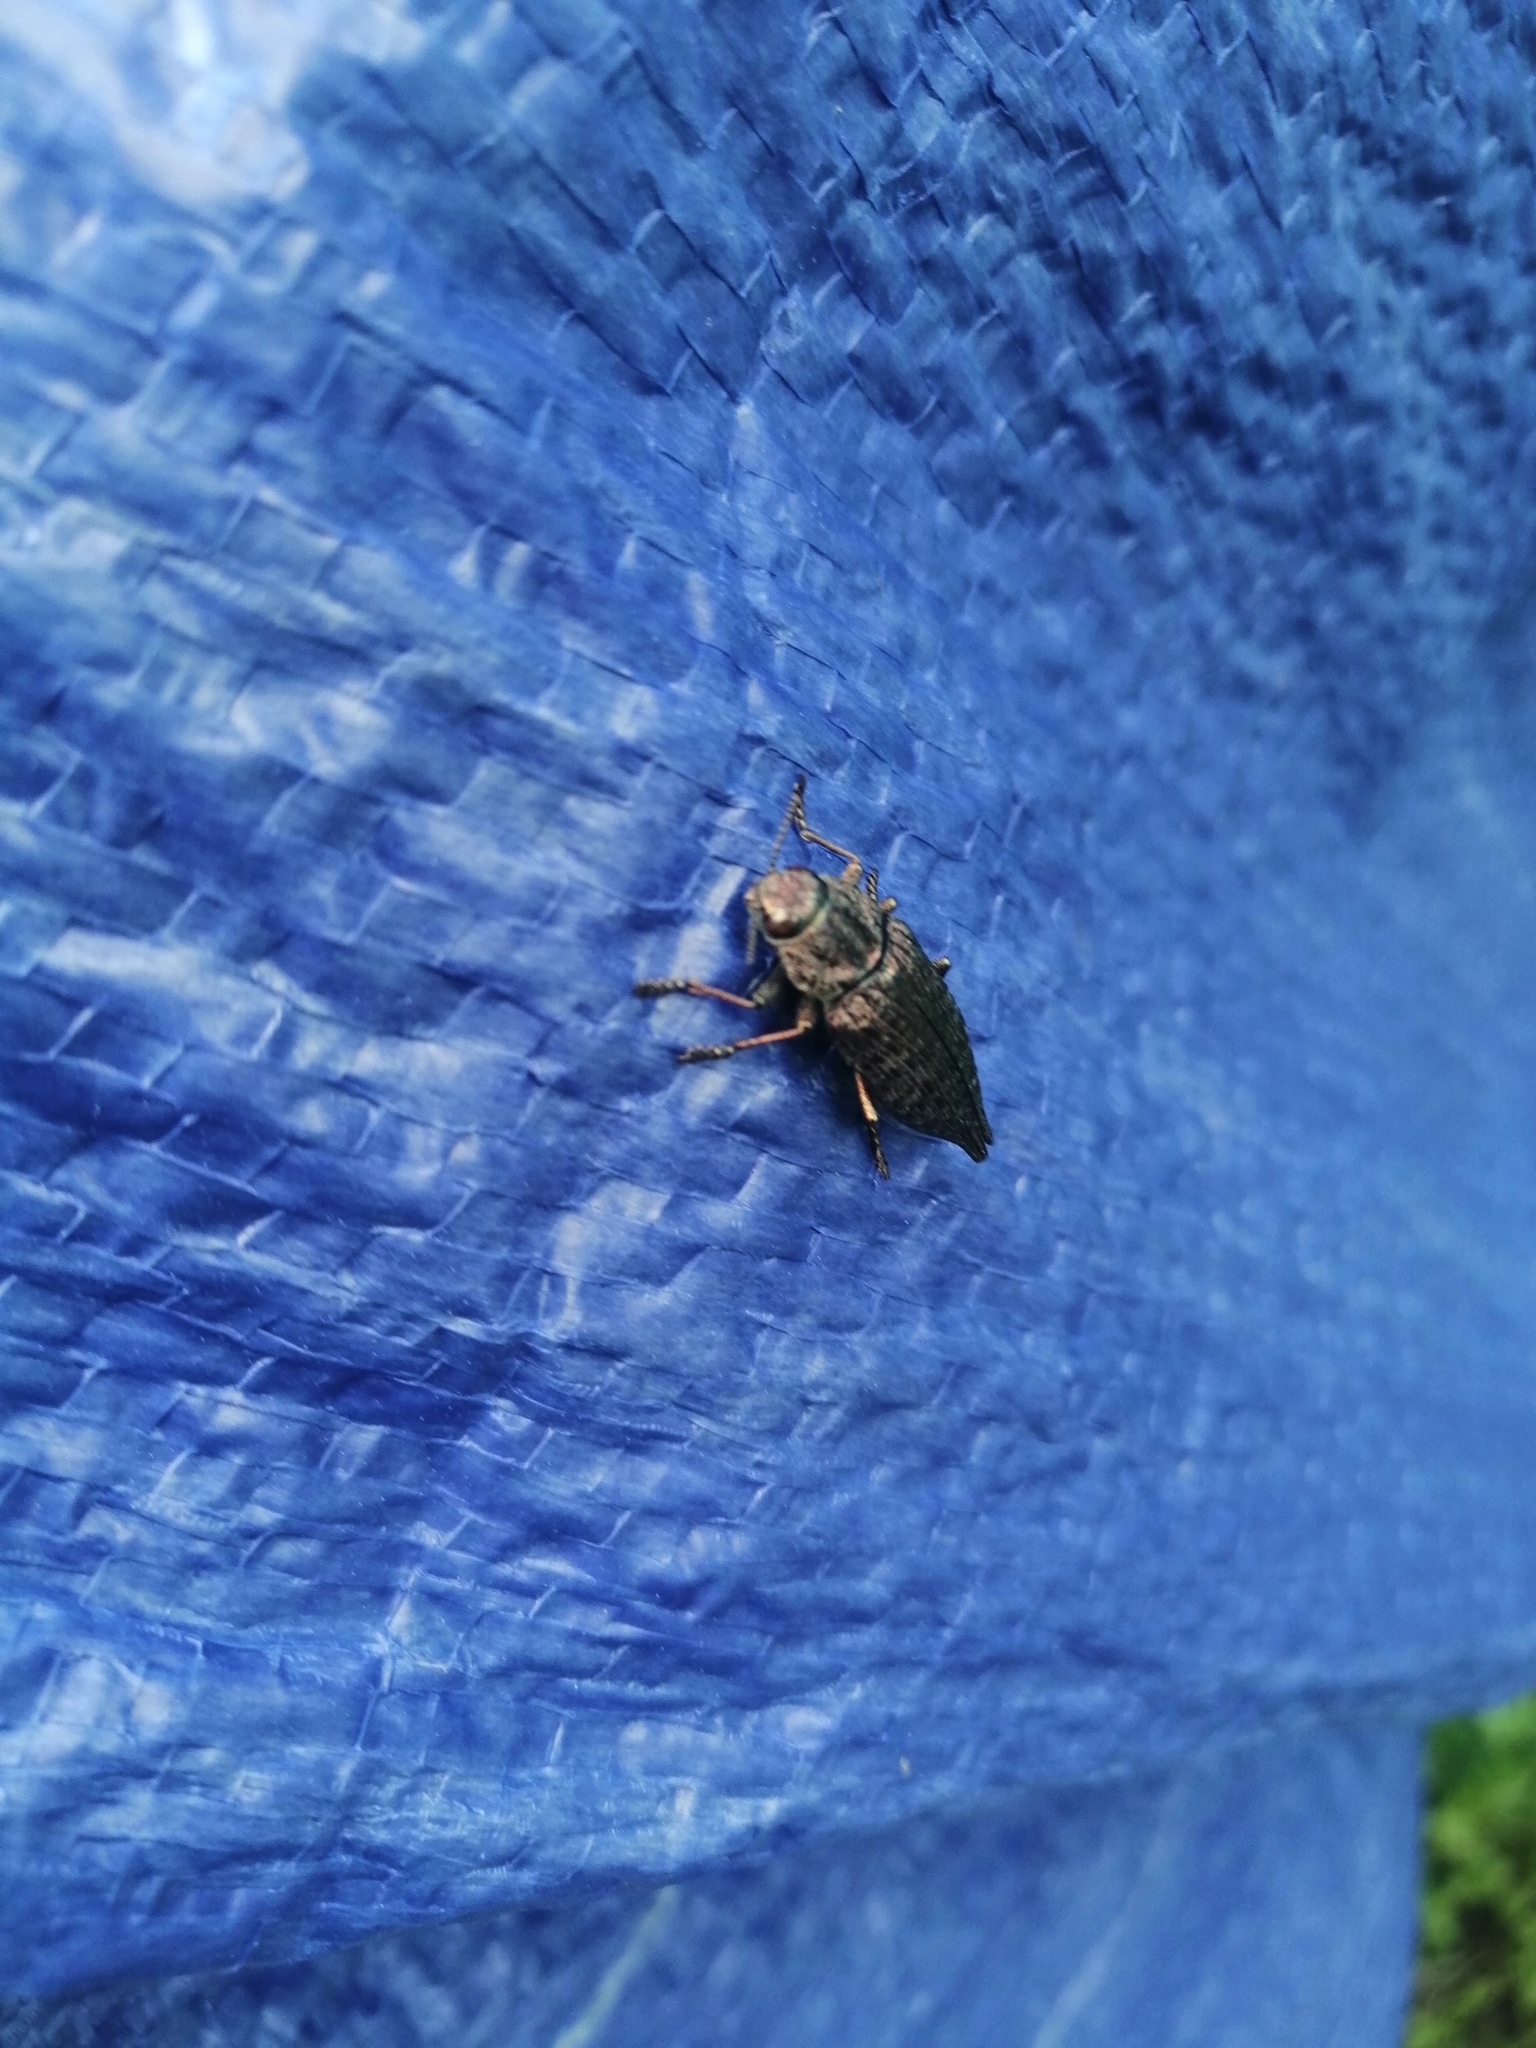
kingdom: Animalia
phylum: Arthropoda
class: Insecta
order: Coleoptera
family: Buprestidae
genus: Dicerca
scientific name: Dicerca
